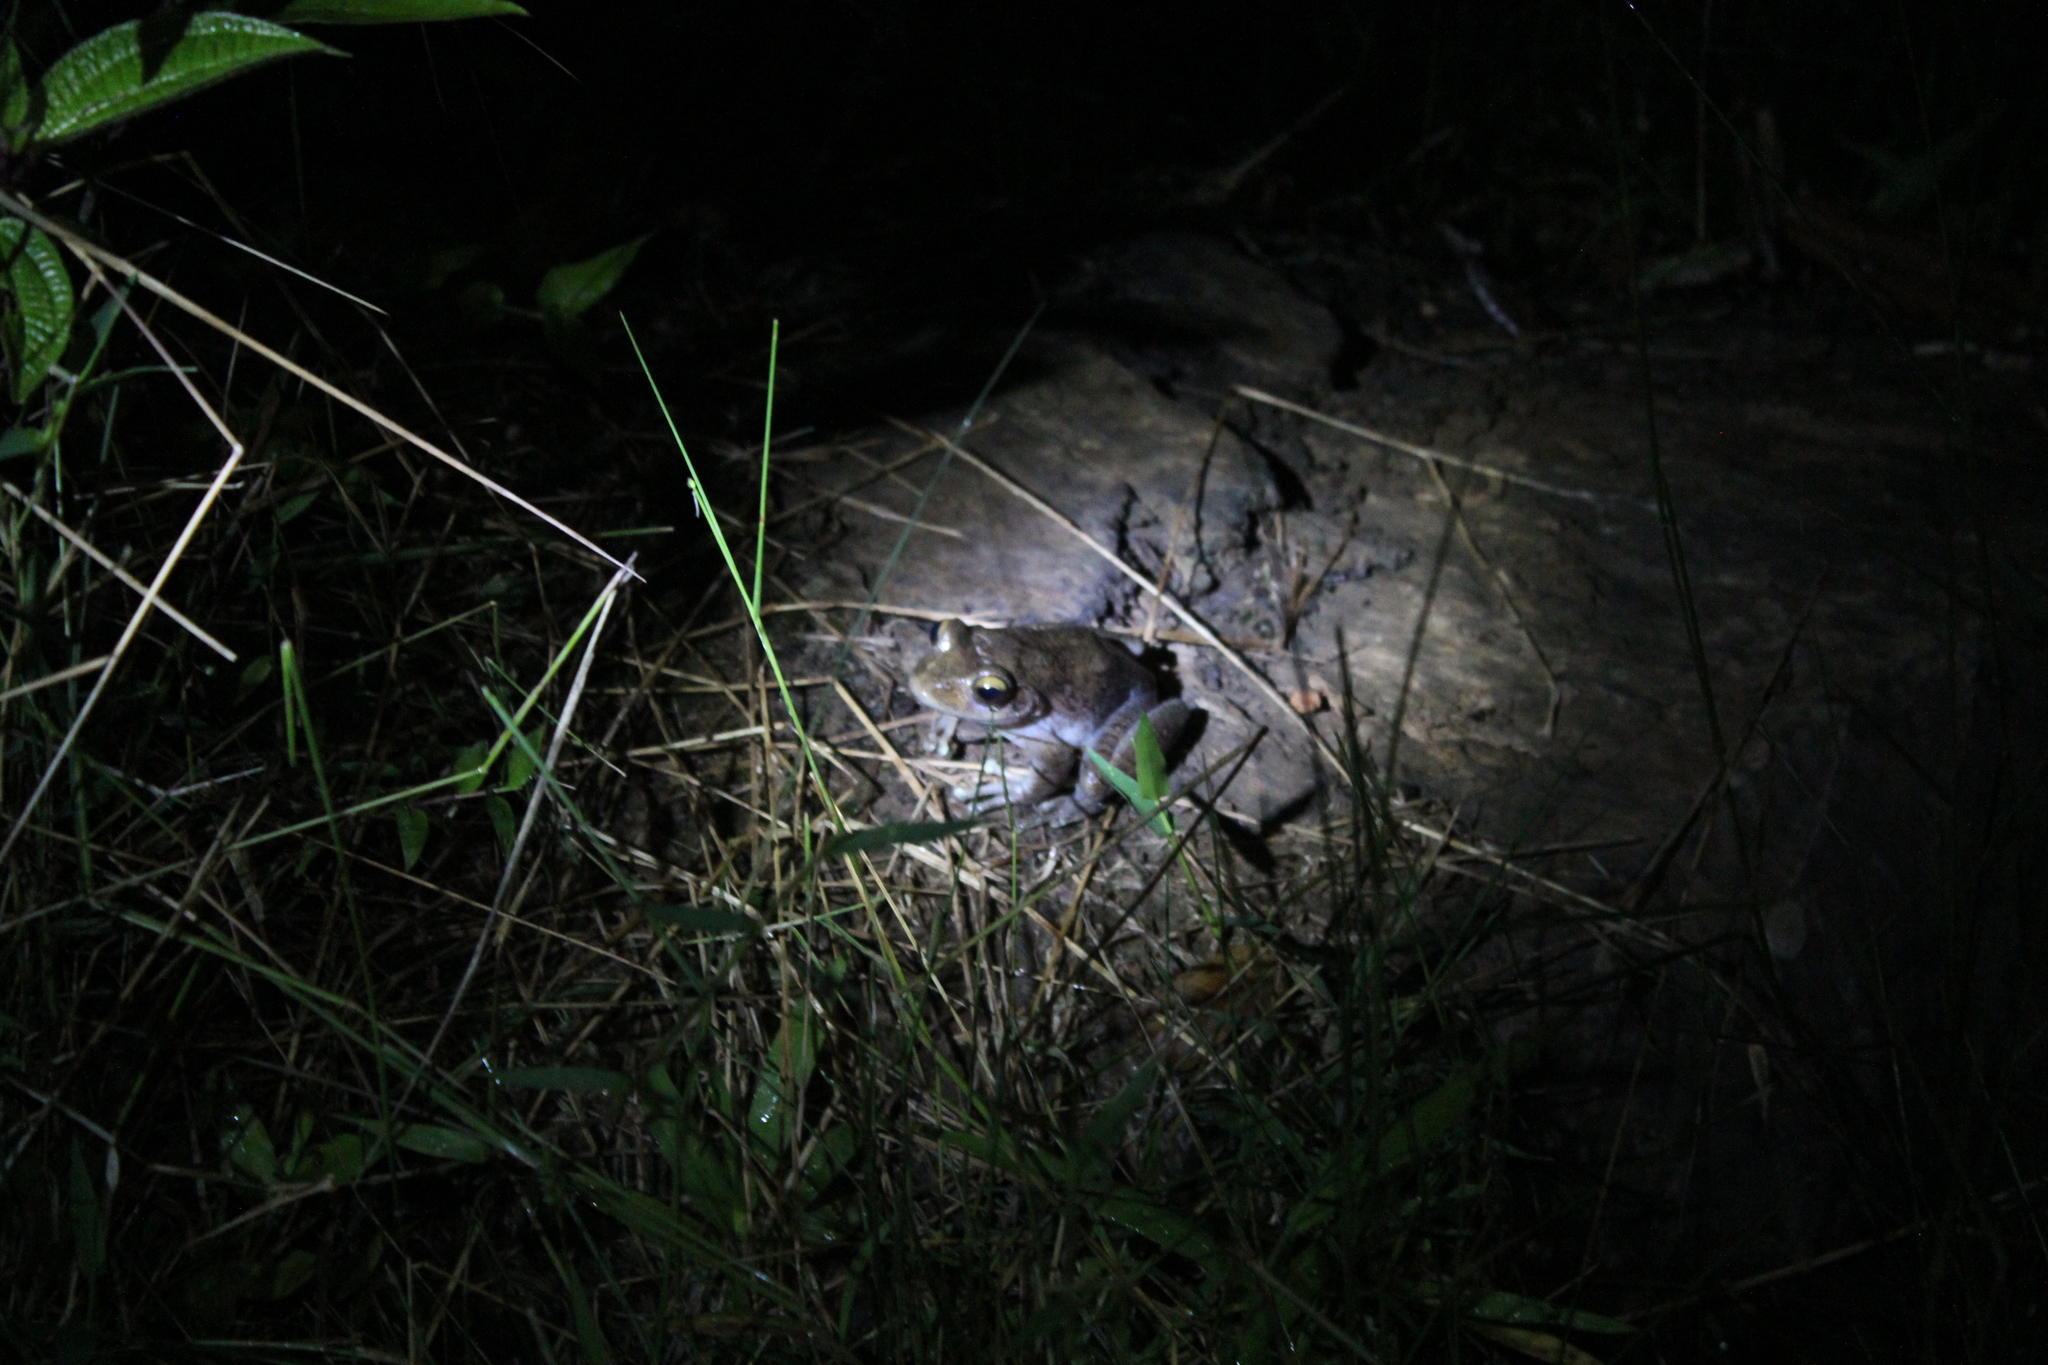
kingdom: Animalia
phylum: Chordata
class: Amphibia
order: Anura
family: Mantellidae
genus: Boophis
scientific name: Boophis goudotii
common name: Goudot's bright-eyed frog
